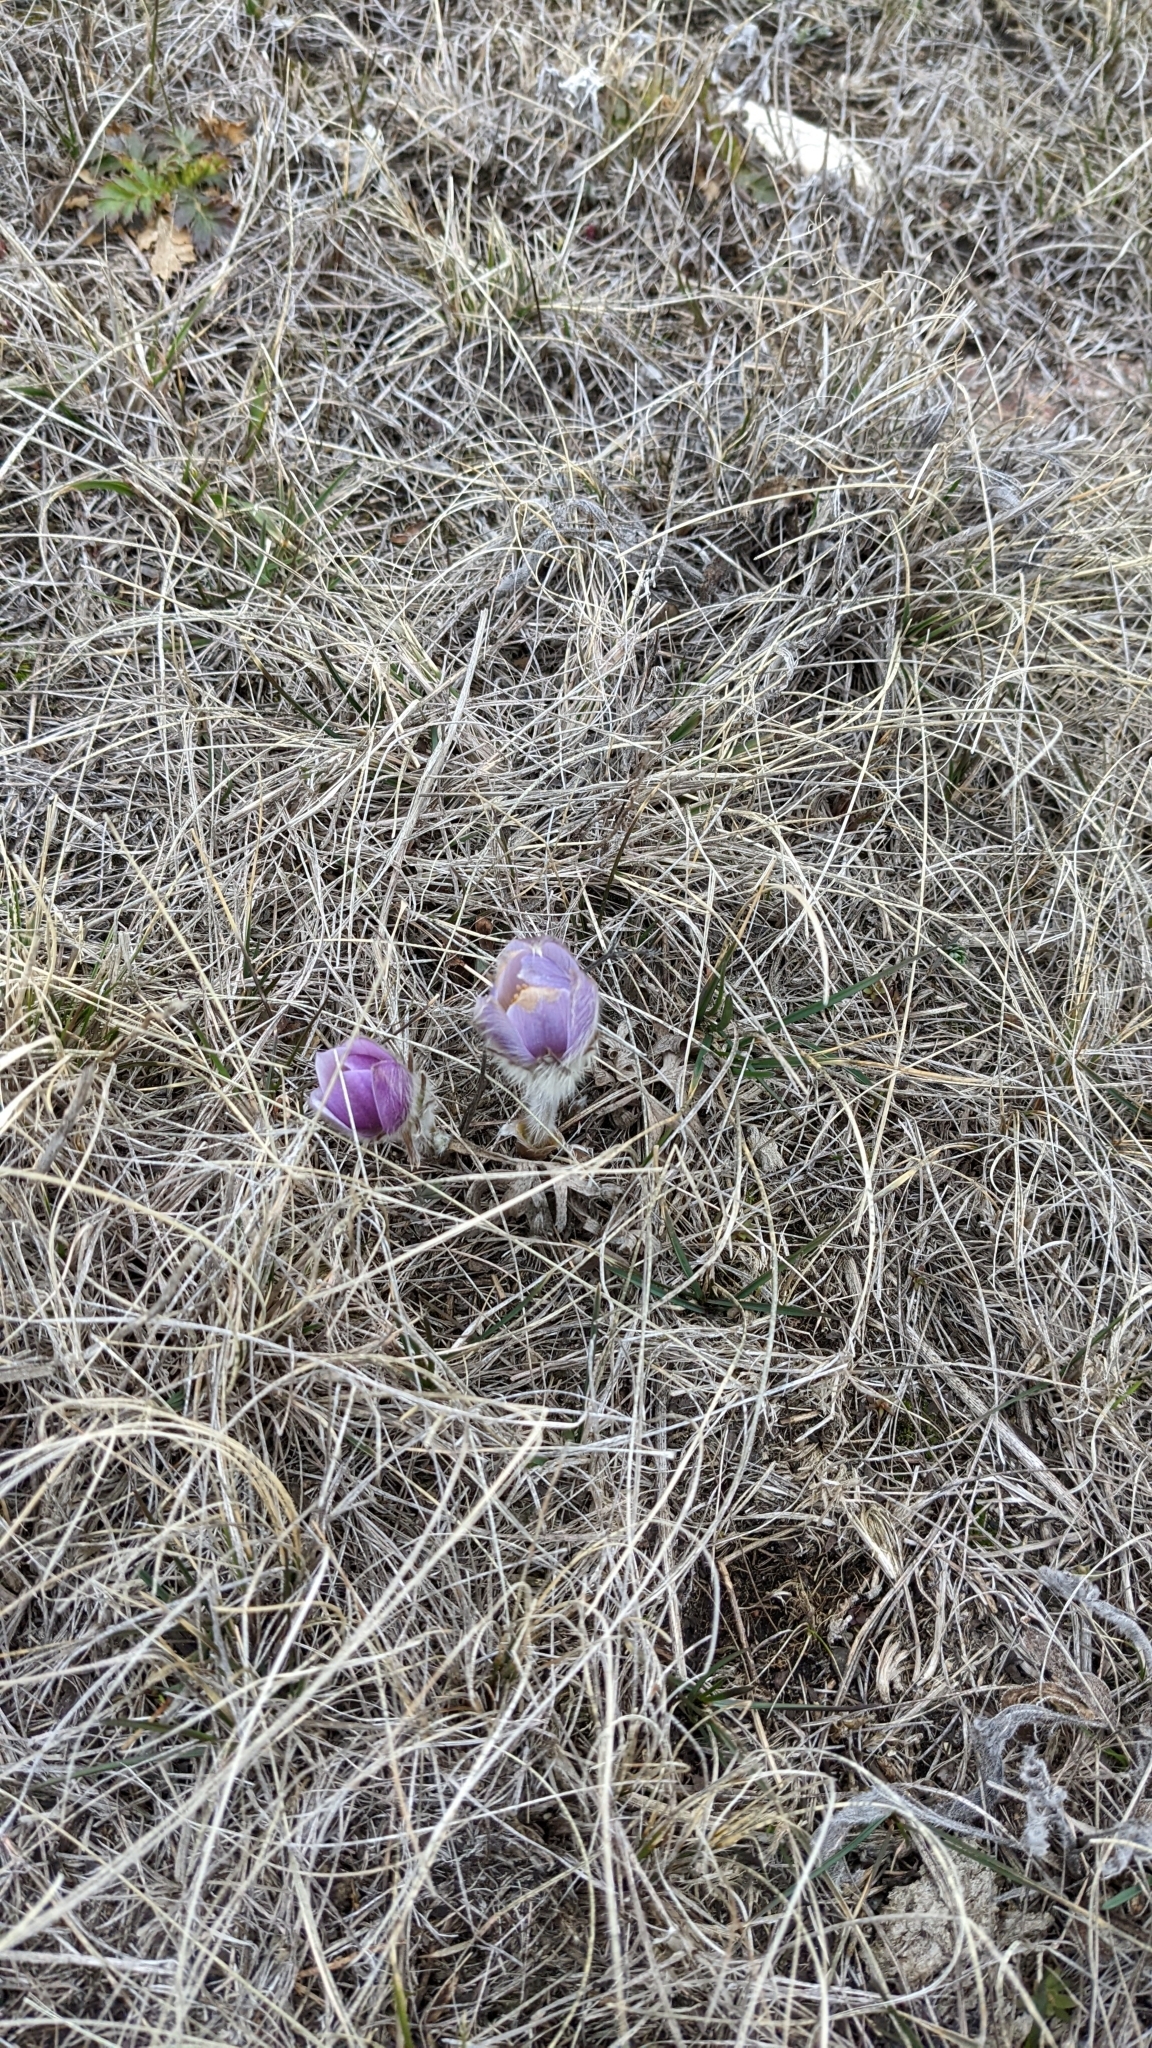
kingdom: Plantae
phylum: Tracheophyta
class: Magnoliopsida
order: Ranunculales
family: Ranunculaceae
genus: Pulsatilla
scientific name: Pulsatilla nuttalliana
